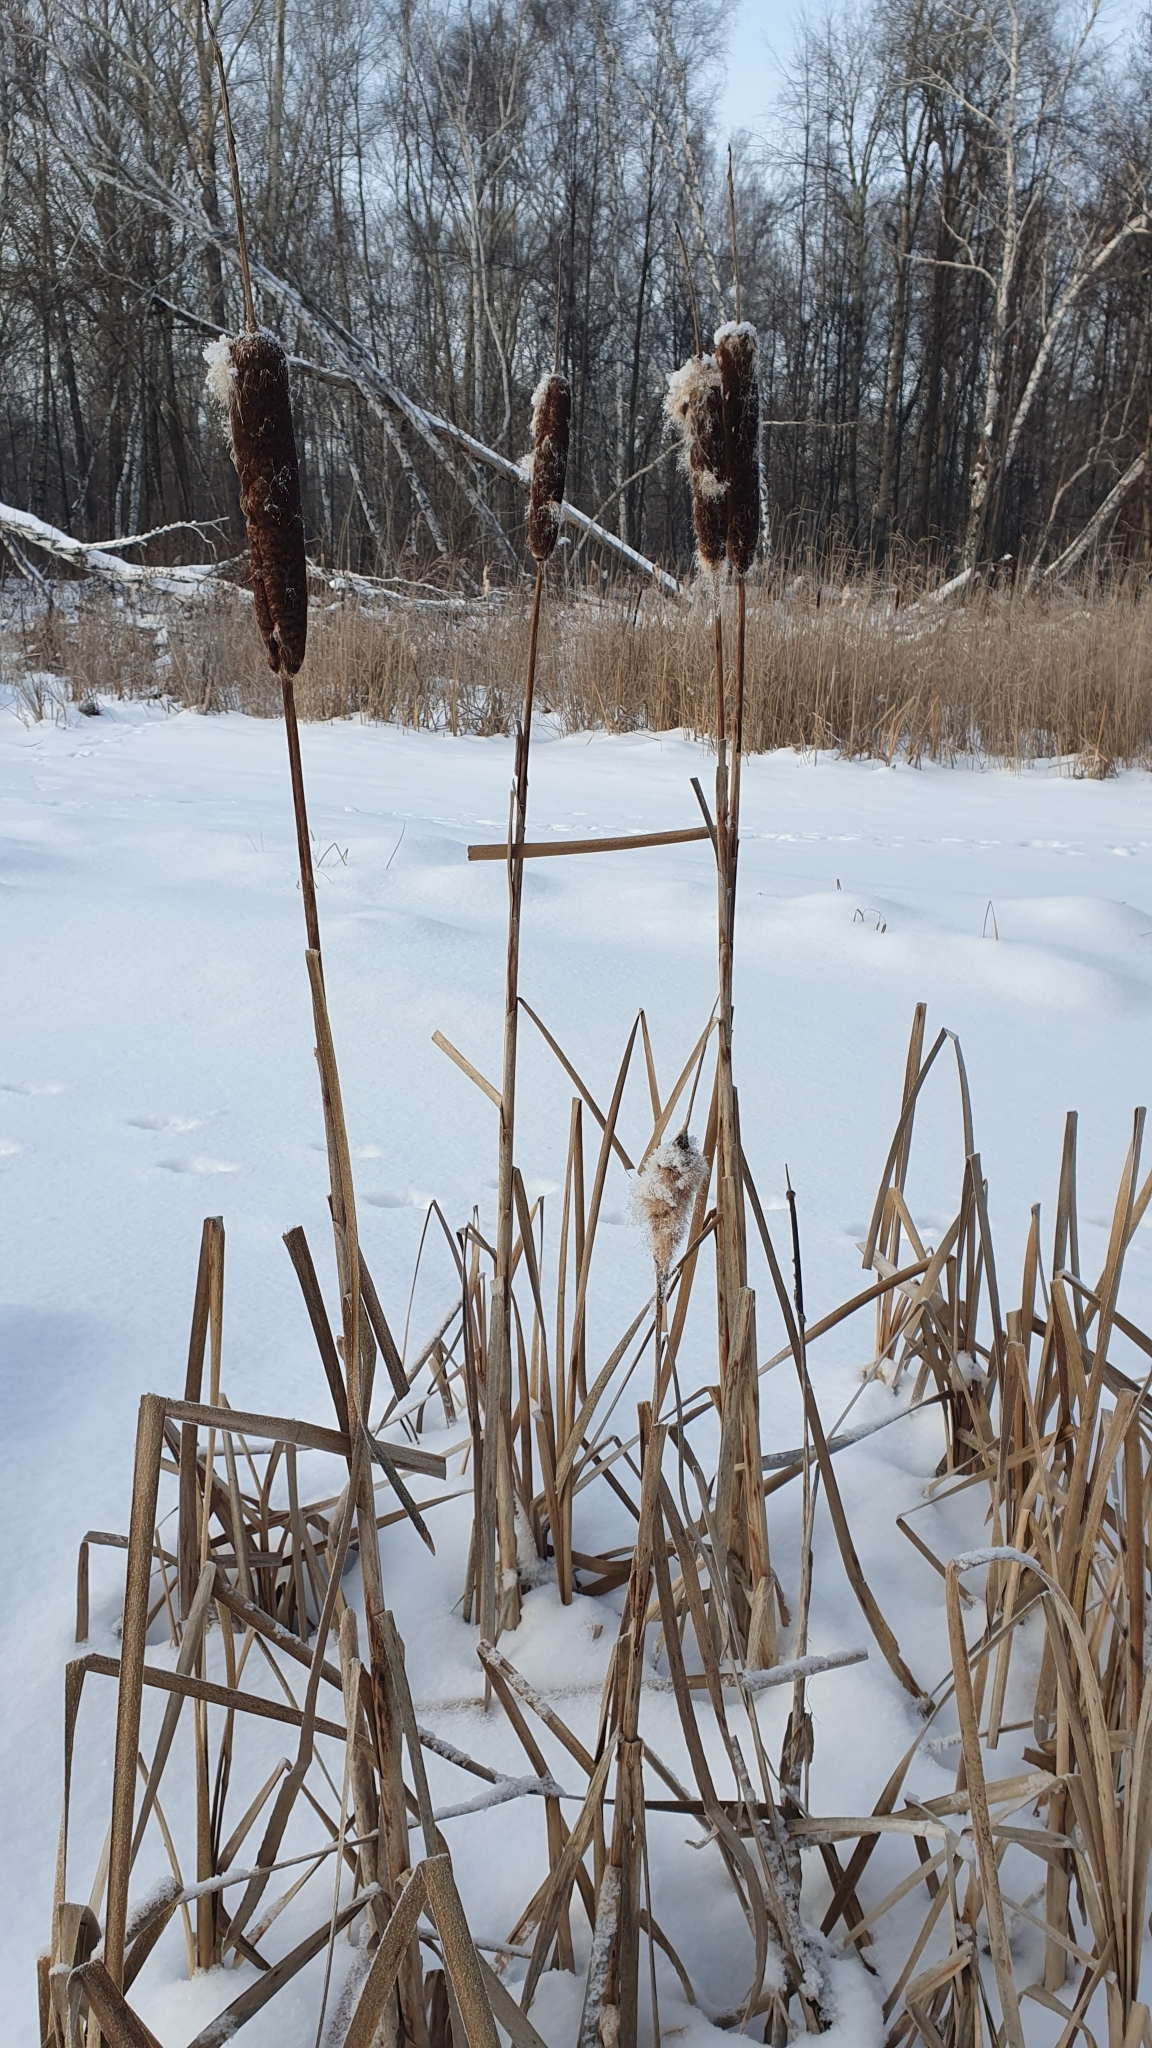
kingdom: Plantae
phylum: Tracheophyta
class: Liliopsida
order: Poales
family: Typhaceae
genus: Typha
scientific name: Typha latifolia
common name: Broadleaf cattail
